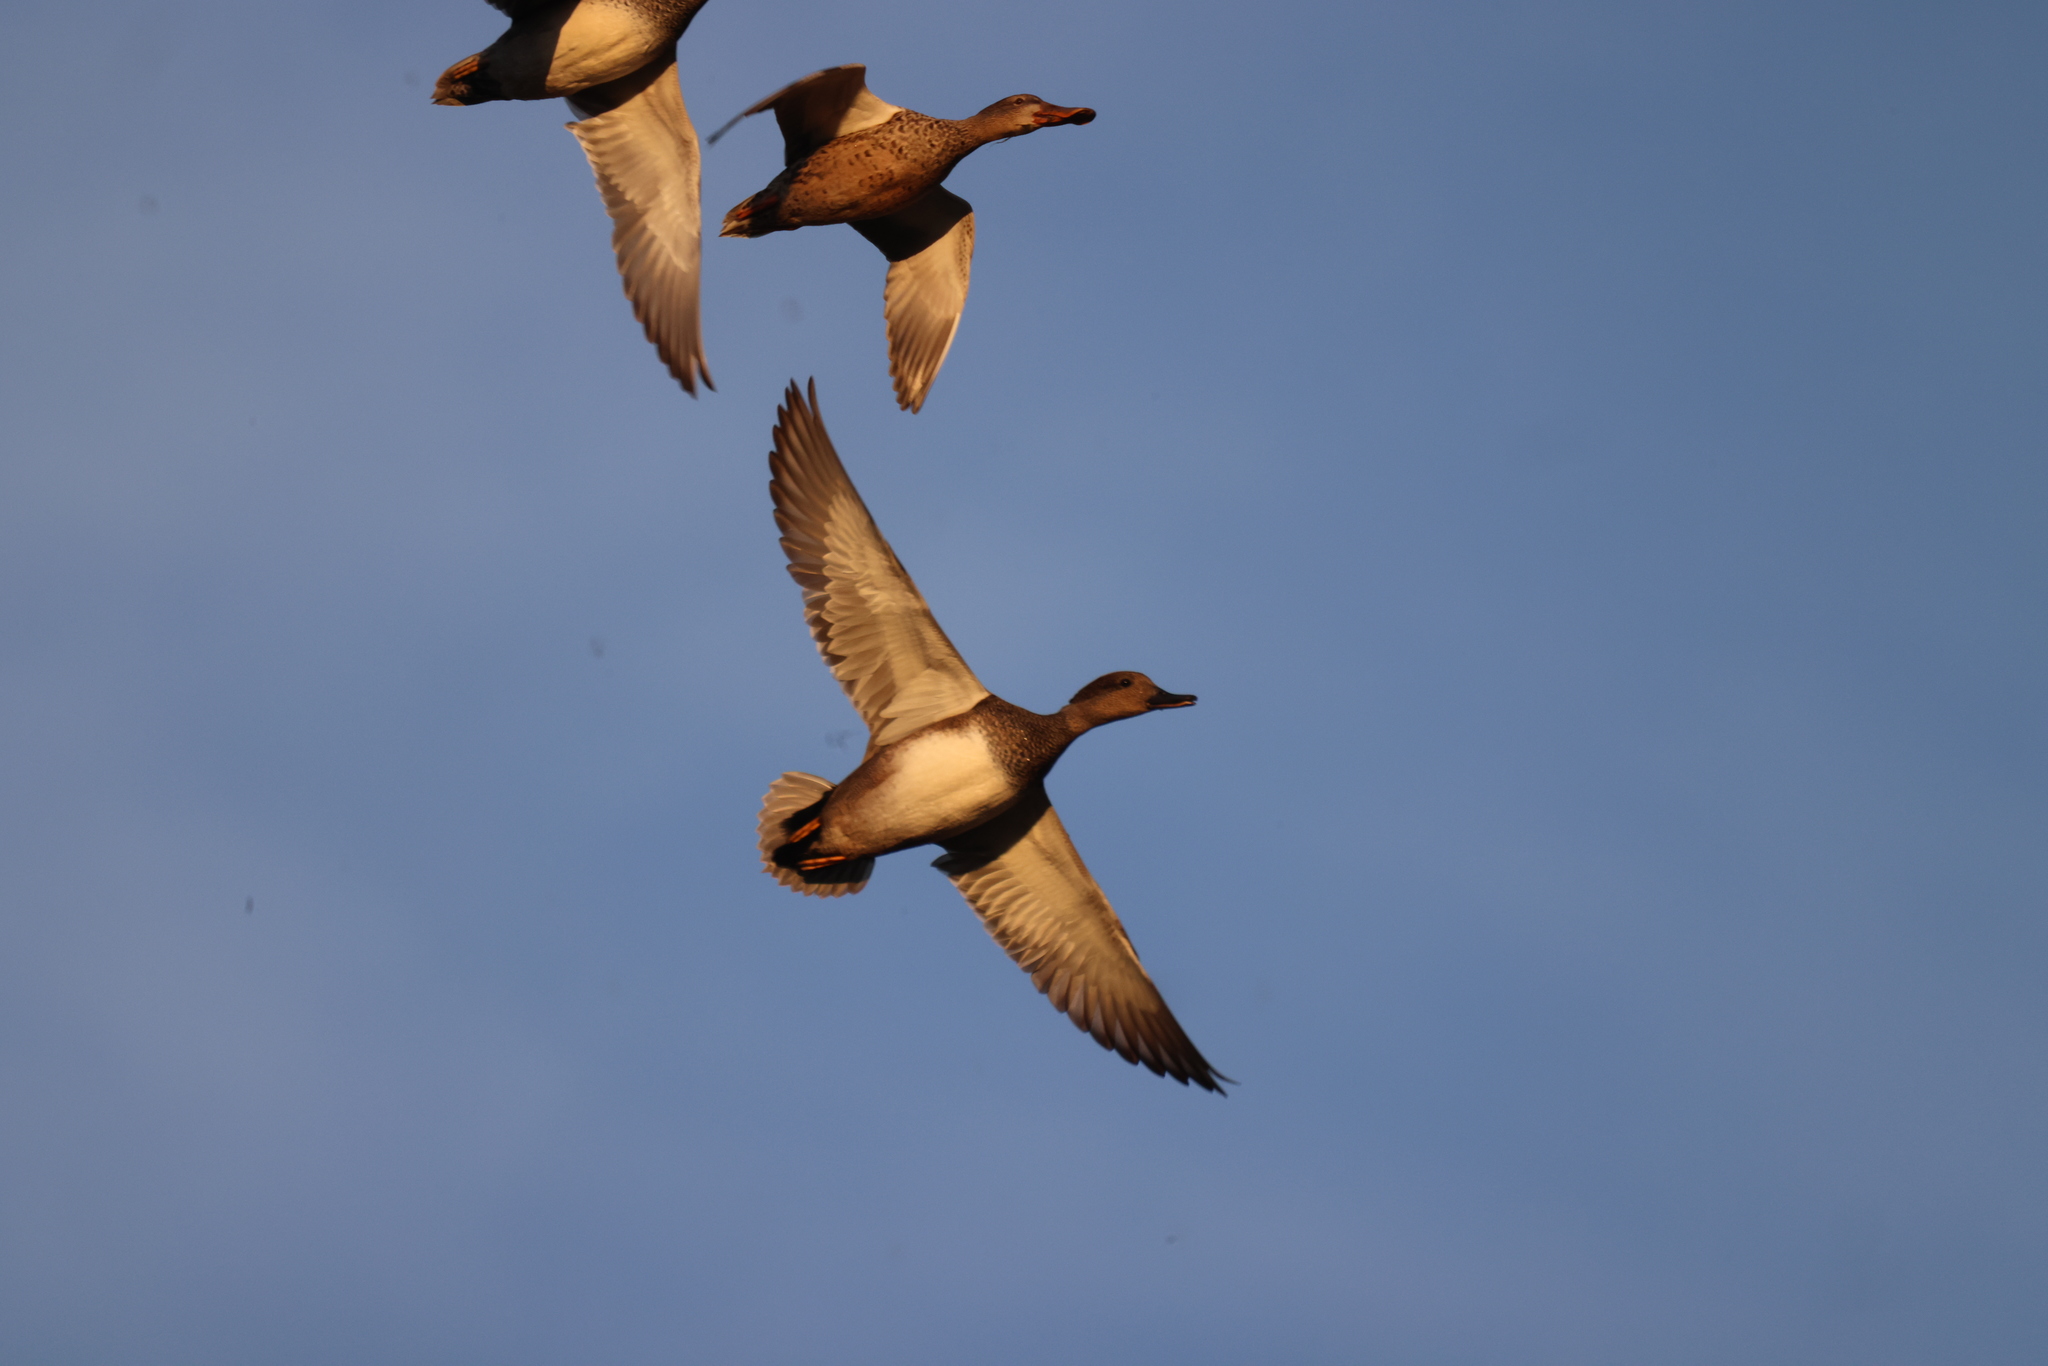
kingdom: Animalia
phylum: Chordata
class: Aves
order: Anseriformes
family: Anatidae
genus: Spatula
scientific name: Spatula clypeata
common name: Northern shoveler
